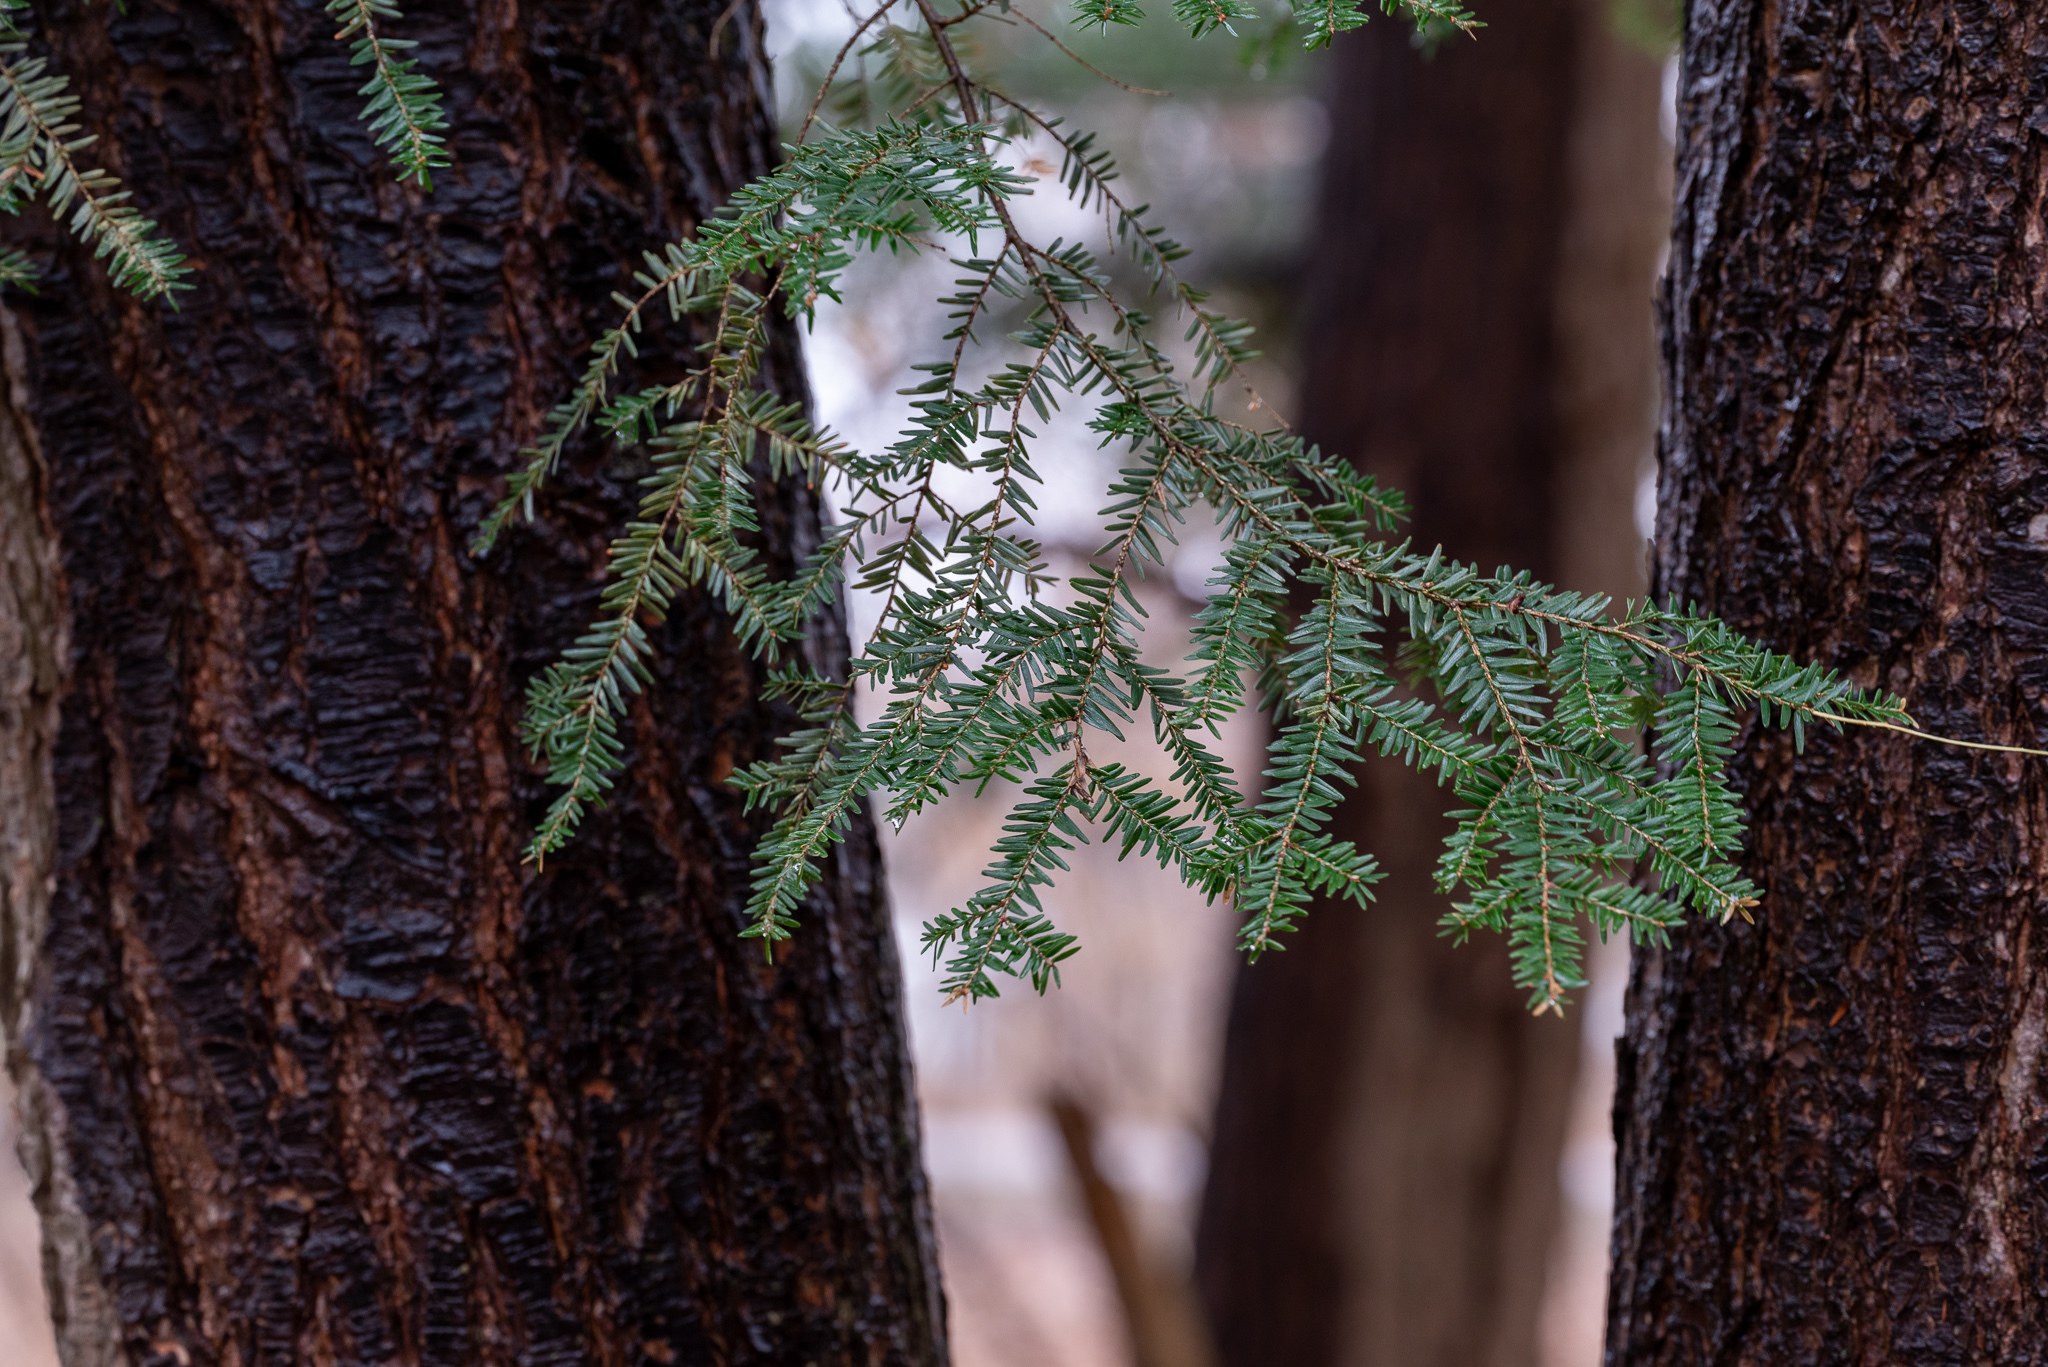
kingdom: Plantae
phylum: Tracheophyta
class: Pinopsida
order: Pinales
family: Pinaceae
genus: Tsuga
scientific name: Tsuga canadensis
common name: Eastern hemlock
